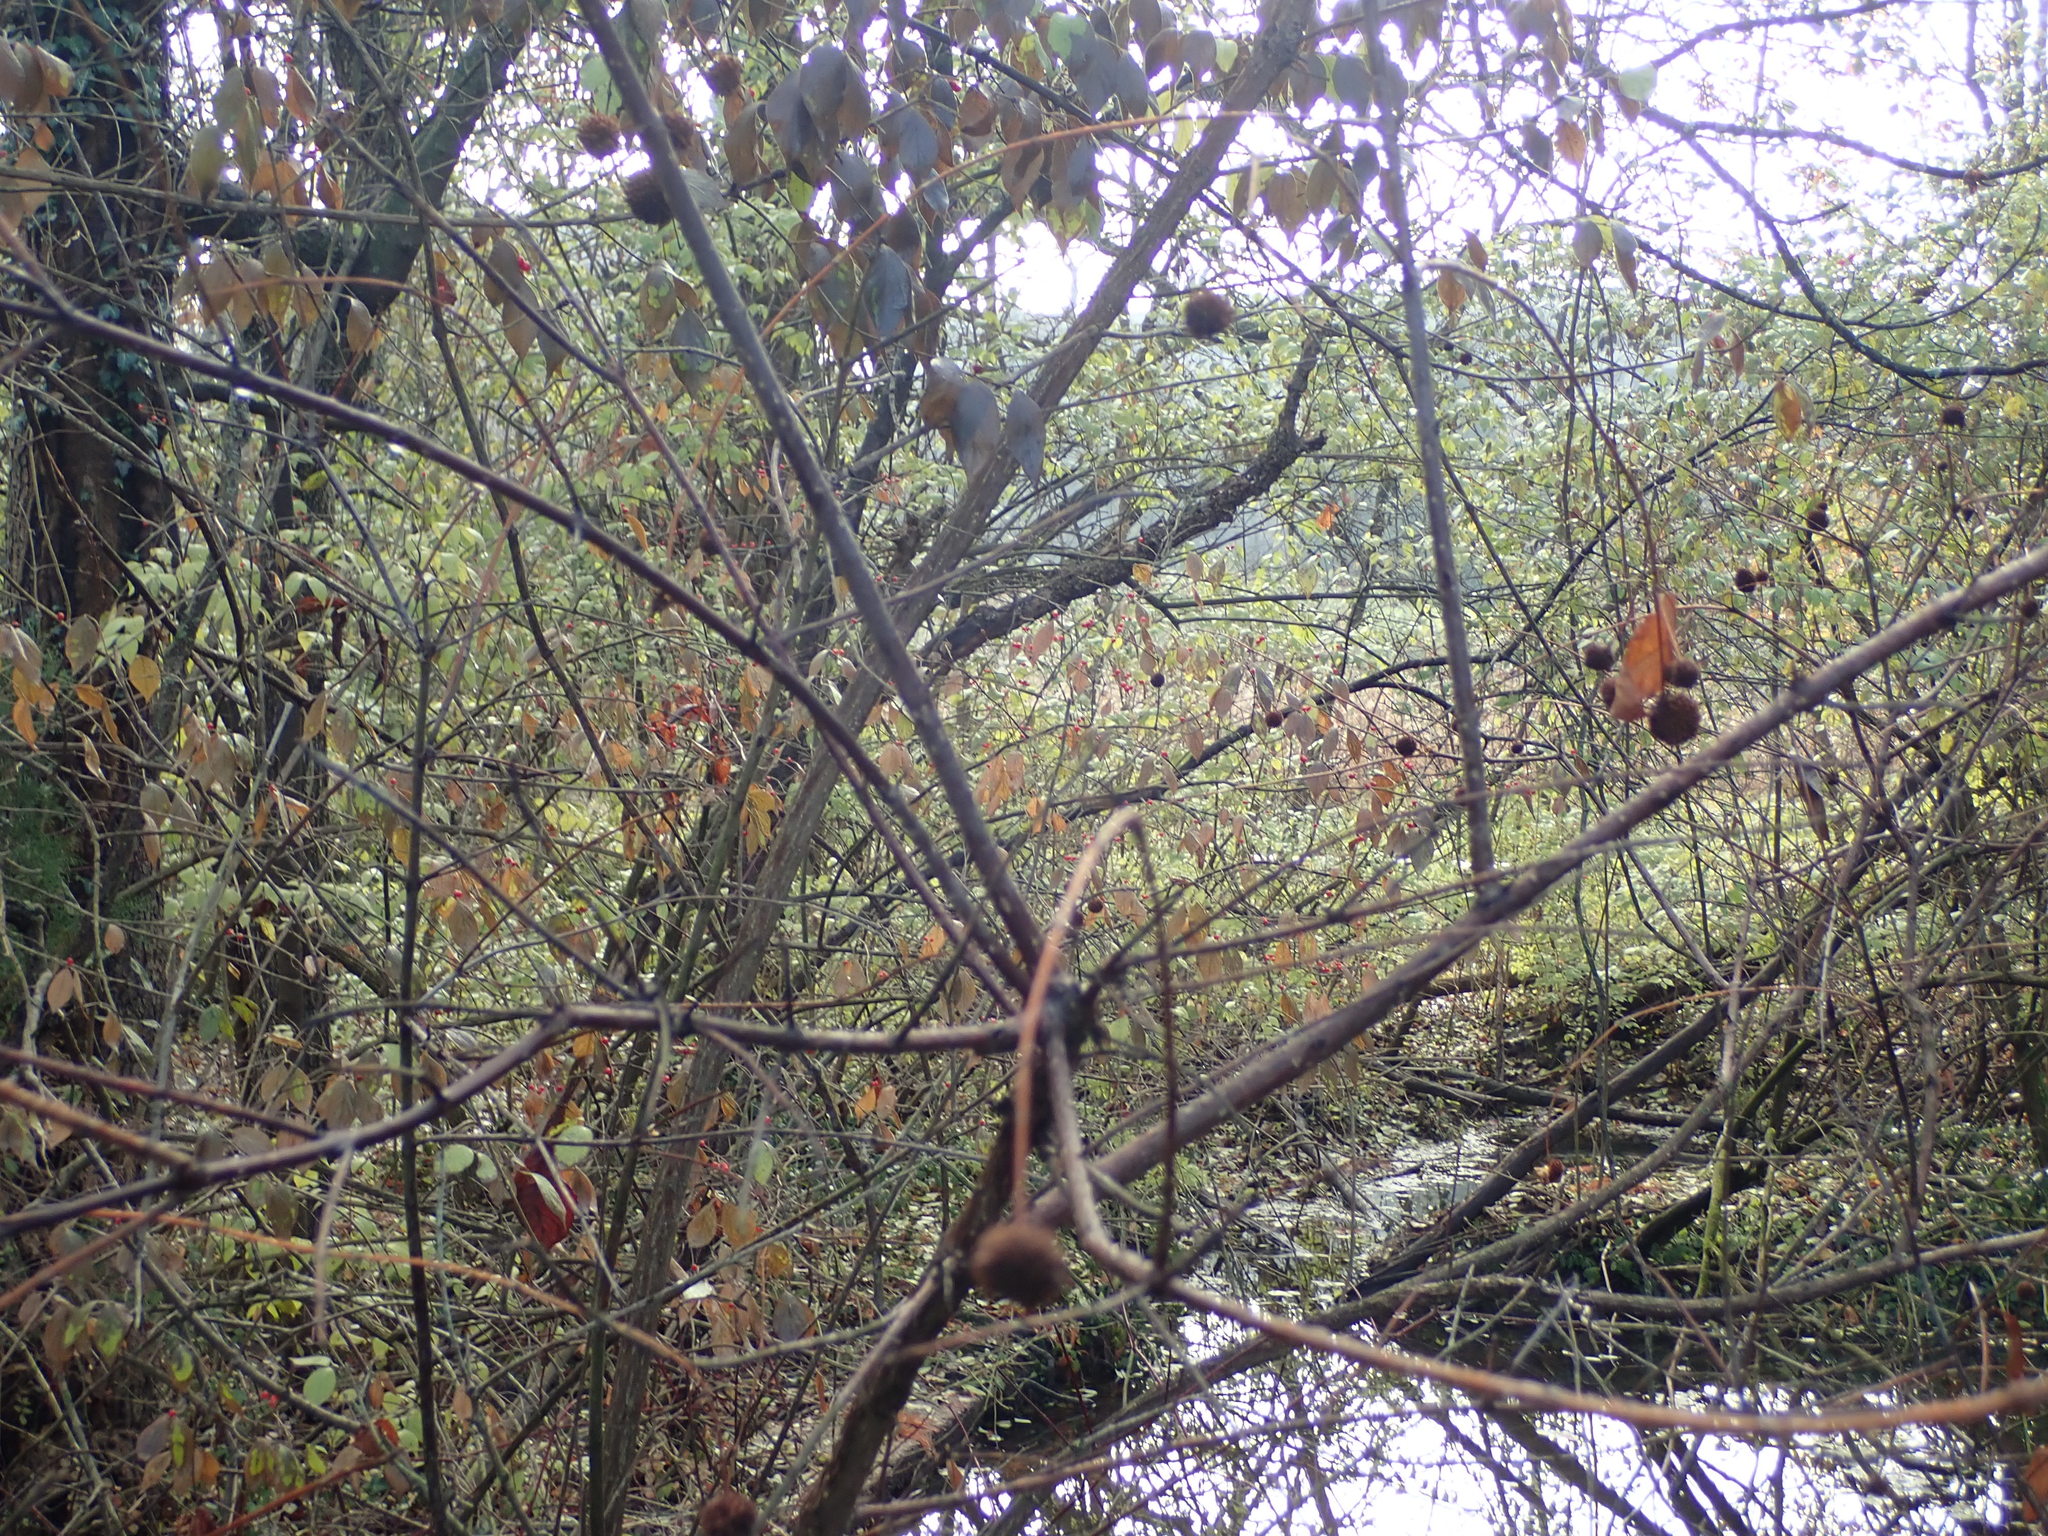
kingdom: Plantae
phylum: Tracheophyta
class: Magnoliopsida
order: Gentianales
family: Rubiaceae
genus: Cephalanthus
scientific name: Cephalanthus occidentalis
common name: Button-willow
